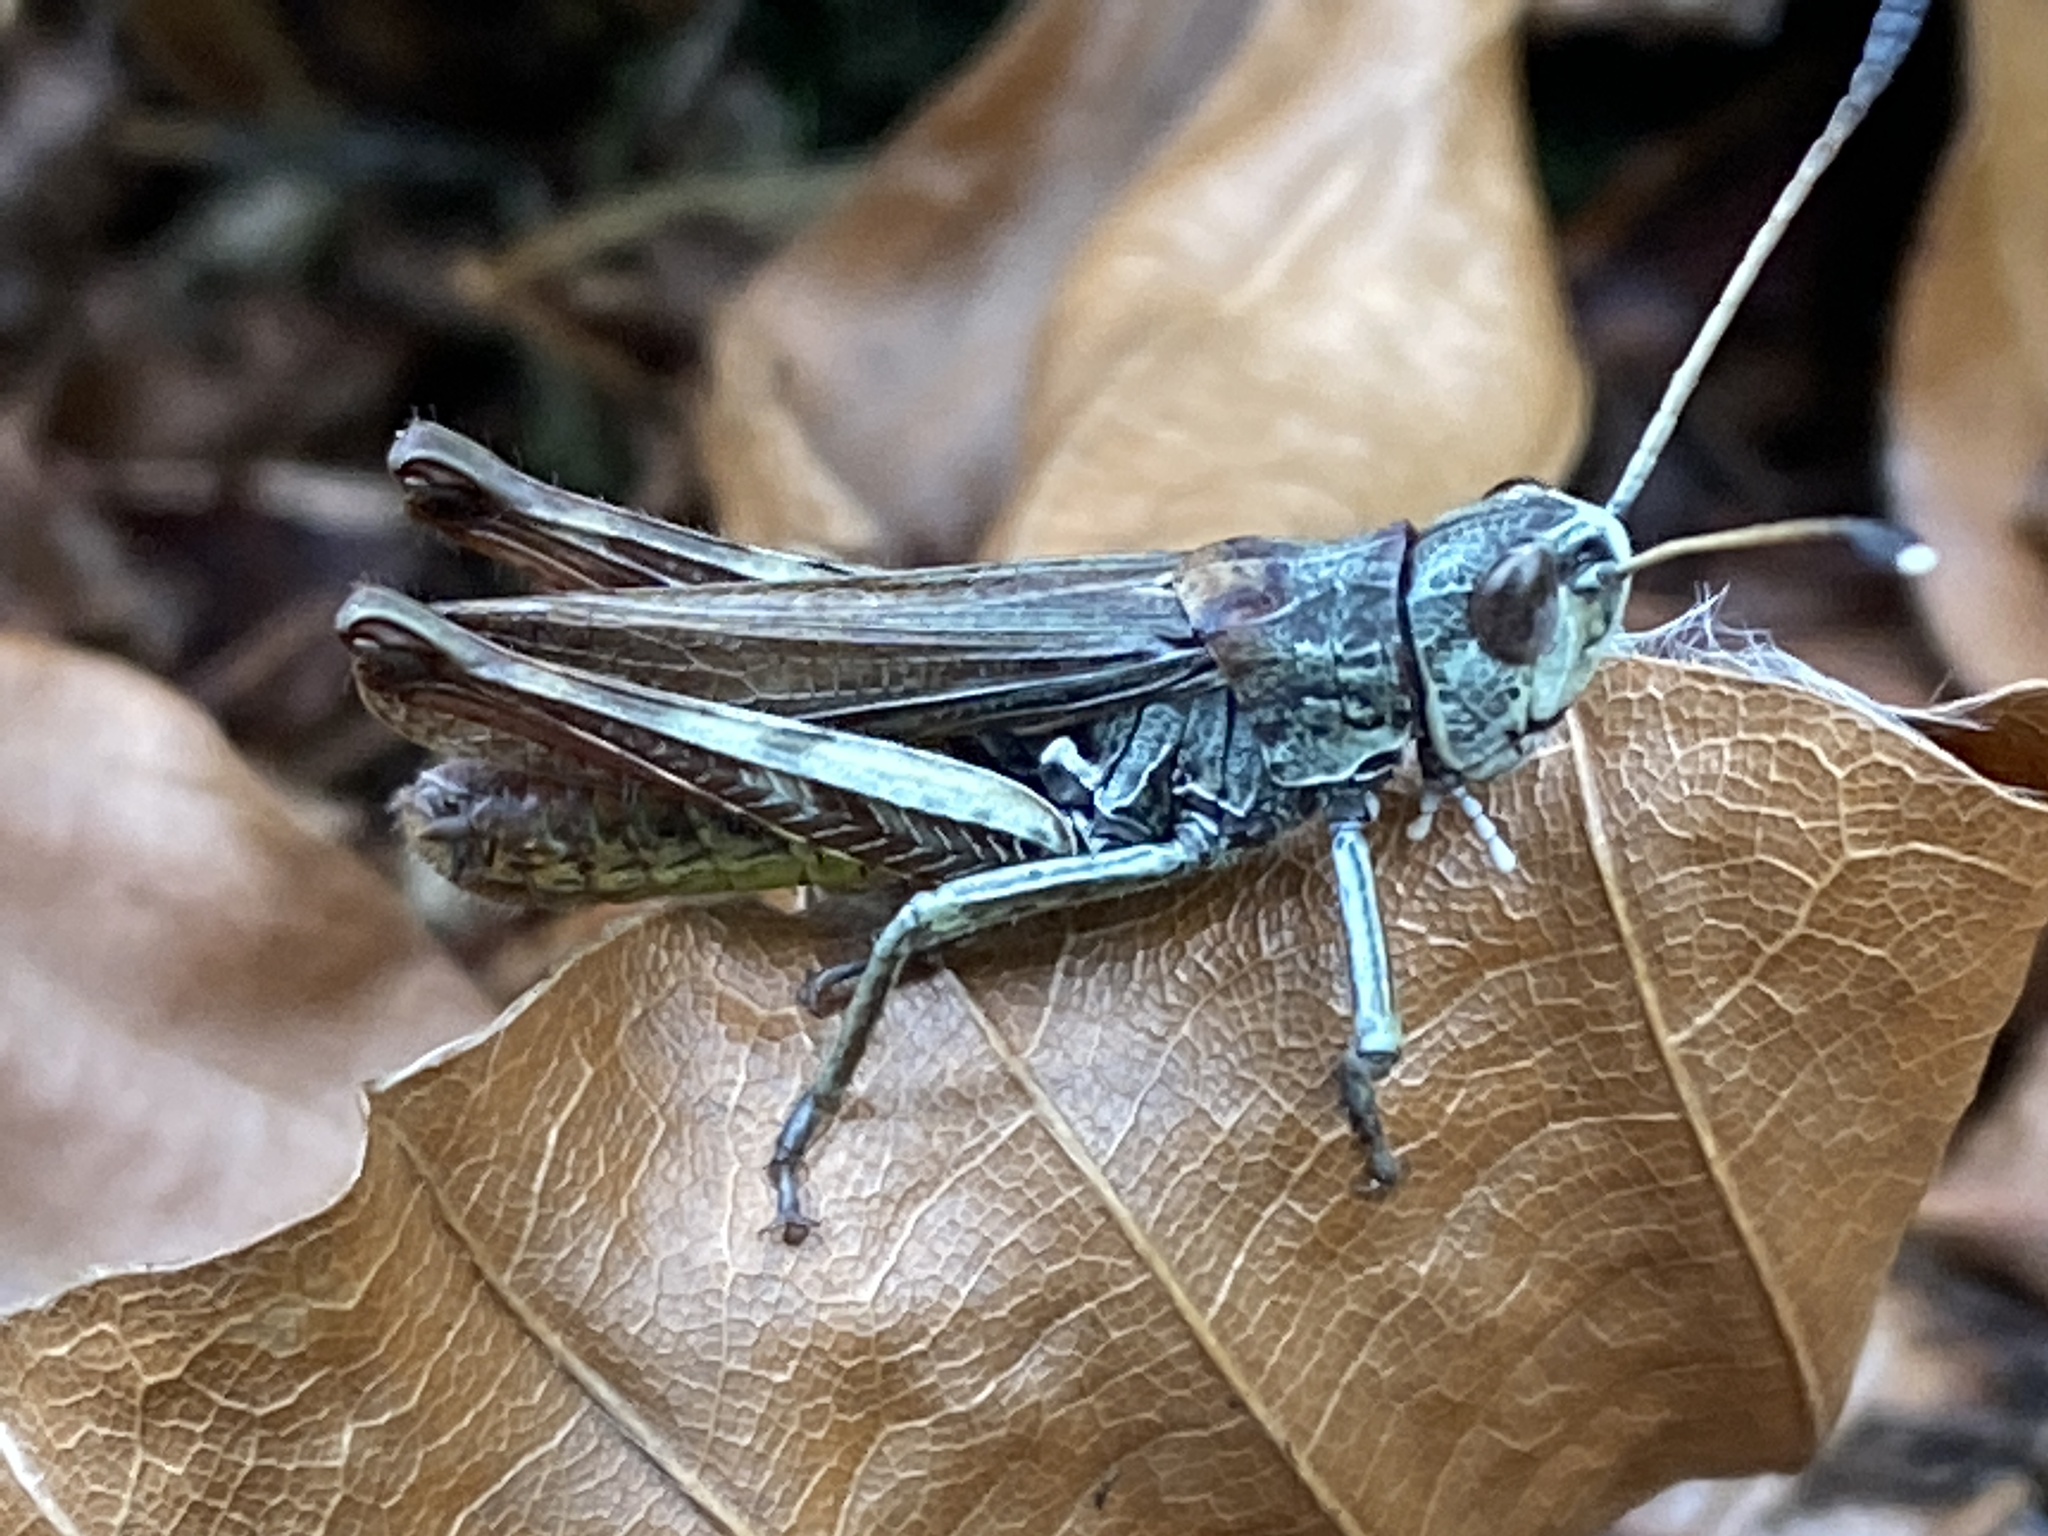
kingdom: Animalia
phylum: Arthropoda
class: Insecta
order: Orthoptera
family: Acrididae
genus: Gomphocerippus
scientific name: Gomphocerippus rufus
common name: Rufous grasshopper
